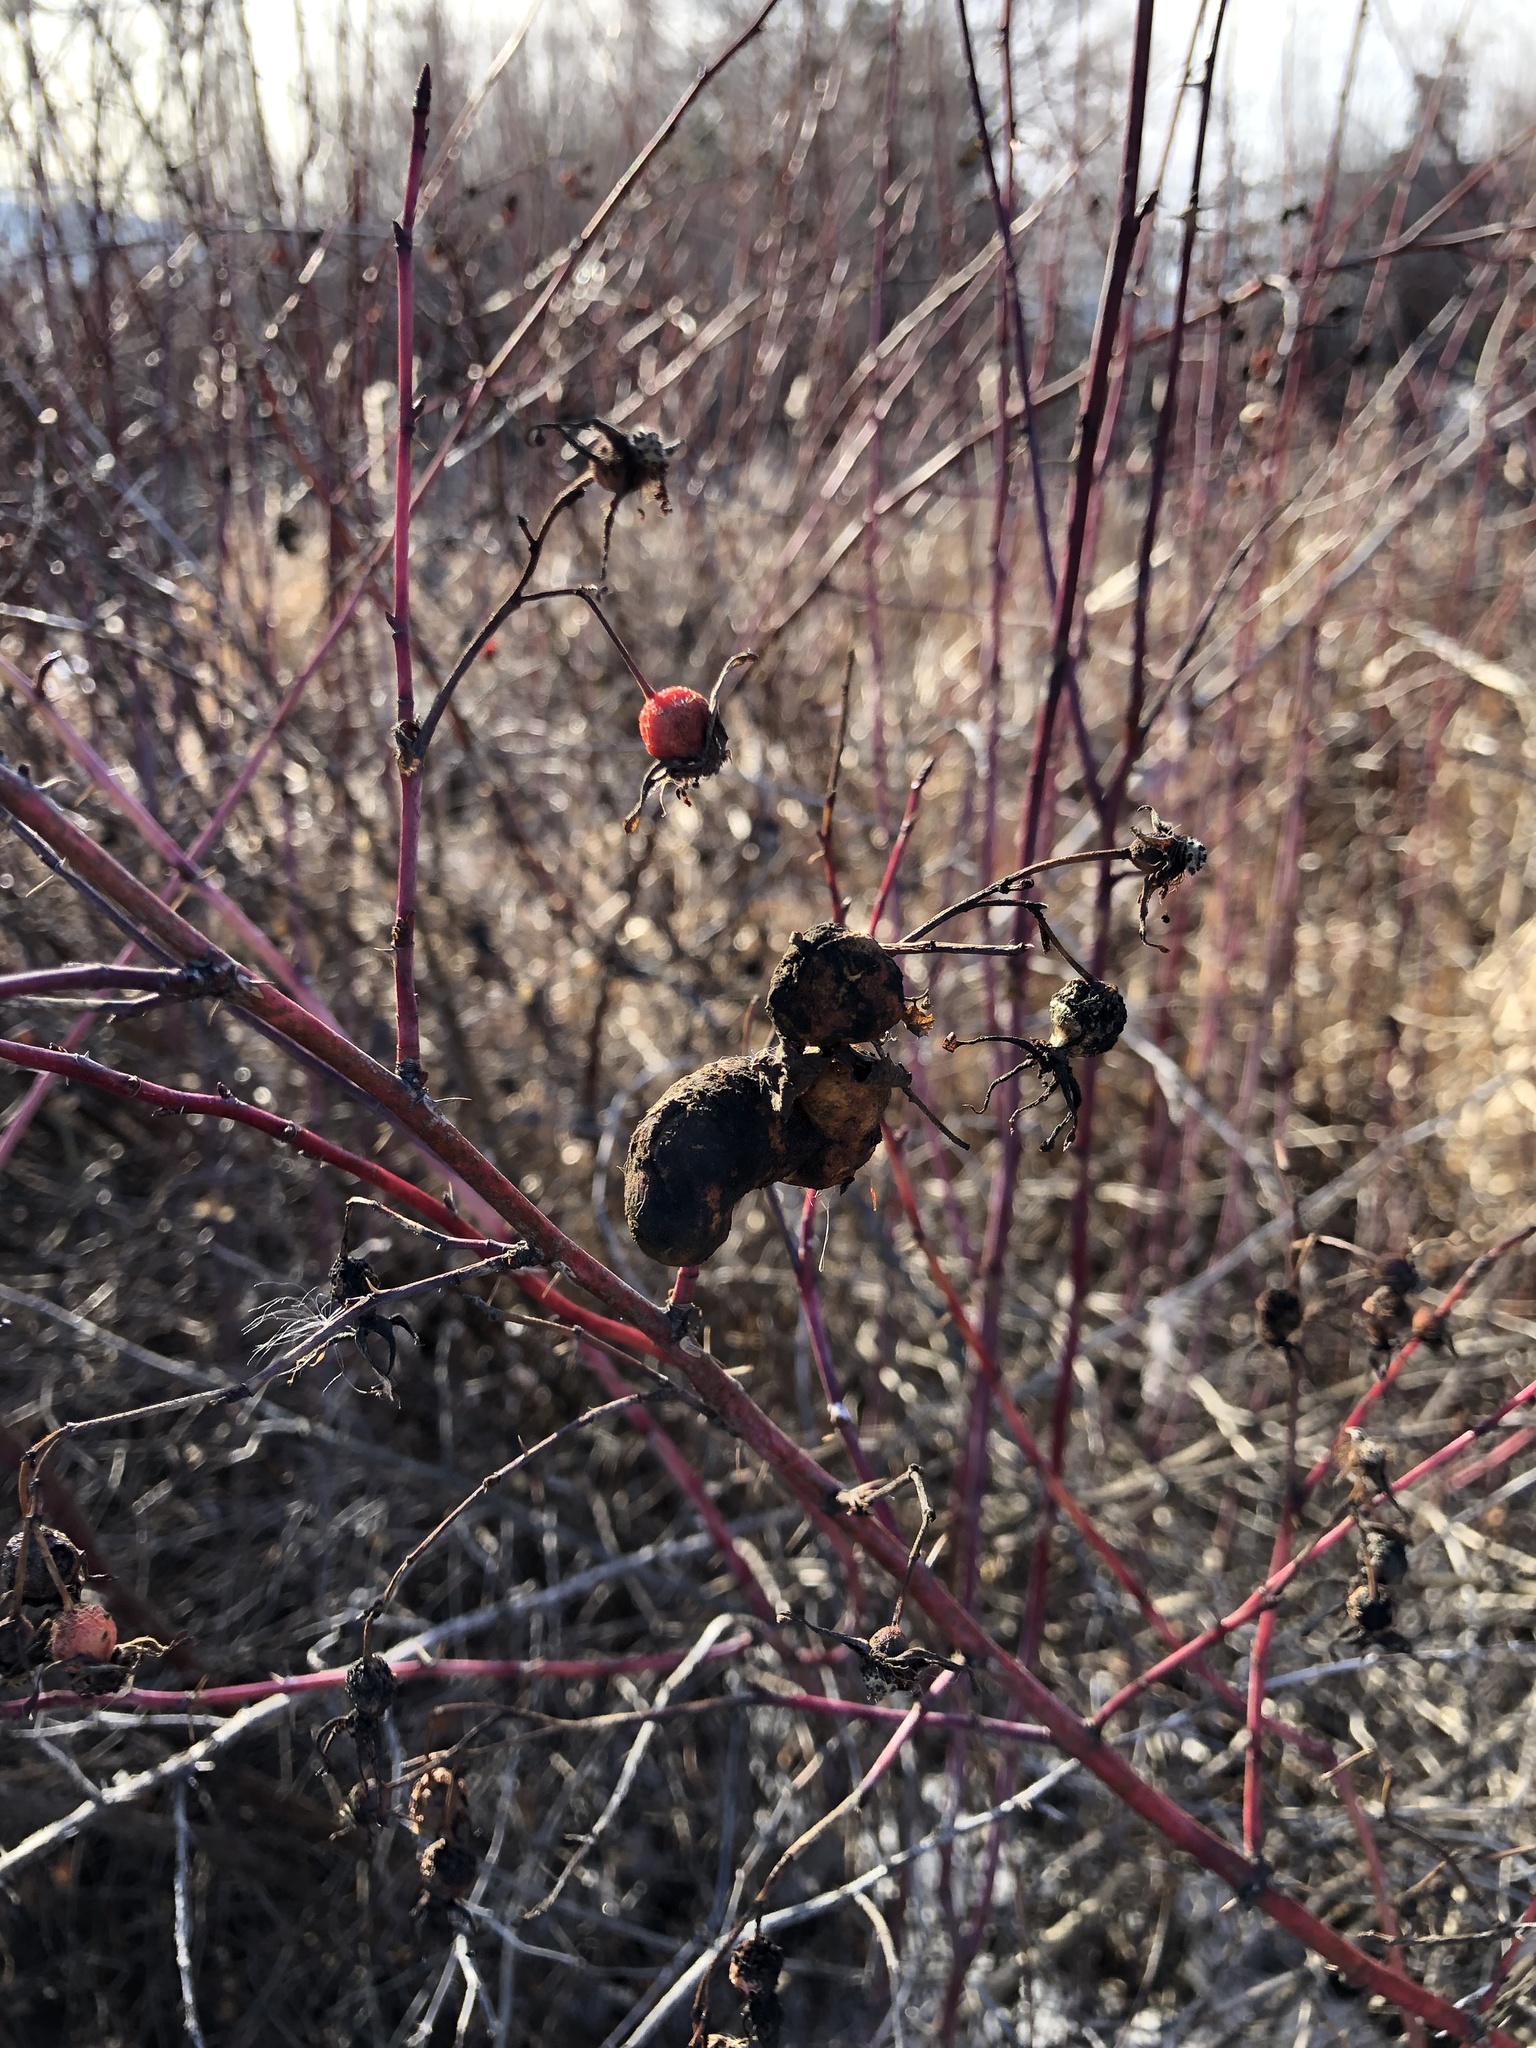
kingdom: Animalia
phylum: Arthropoda
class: Insecta
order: Hymenoptera
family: Cynipidae
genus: Diplolepis
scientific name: Diplolepis variabilis
